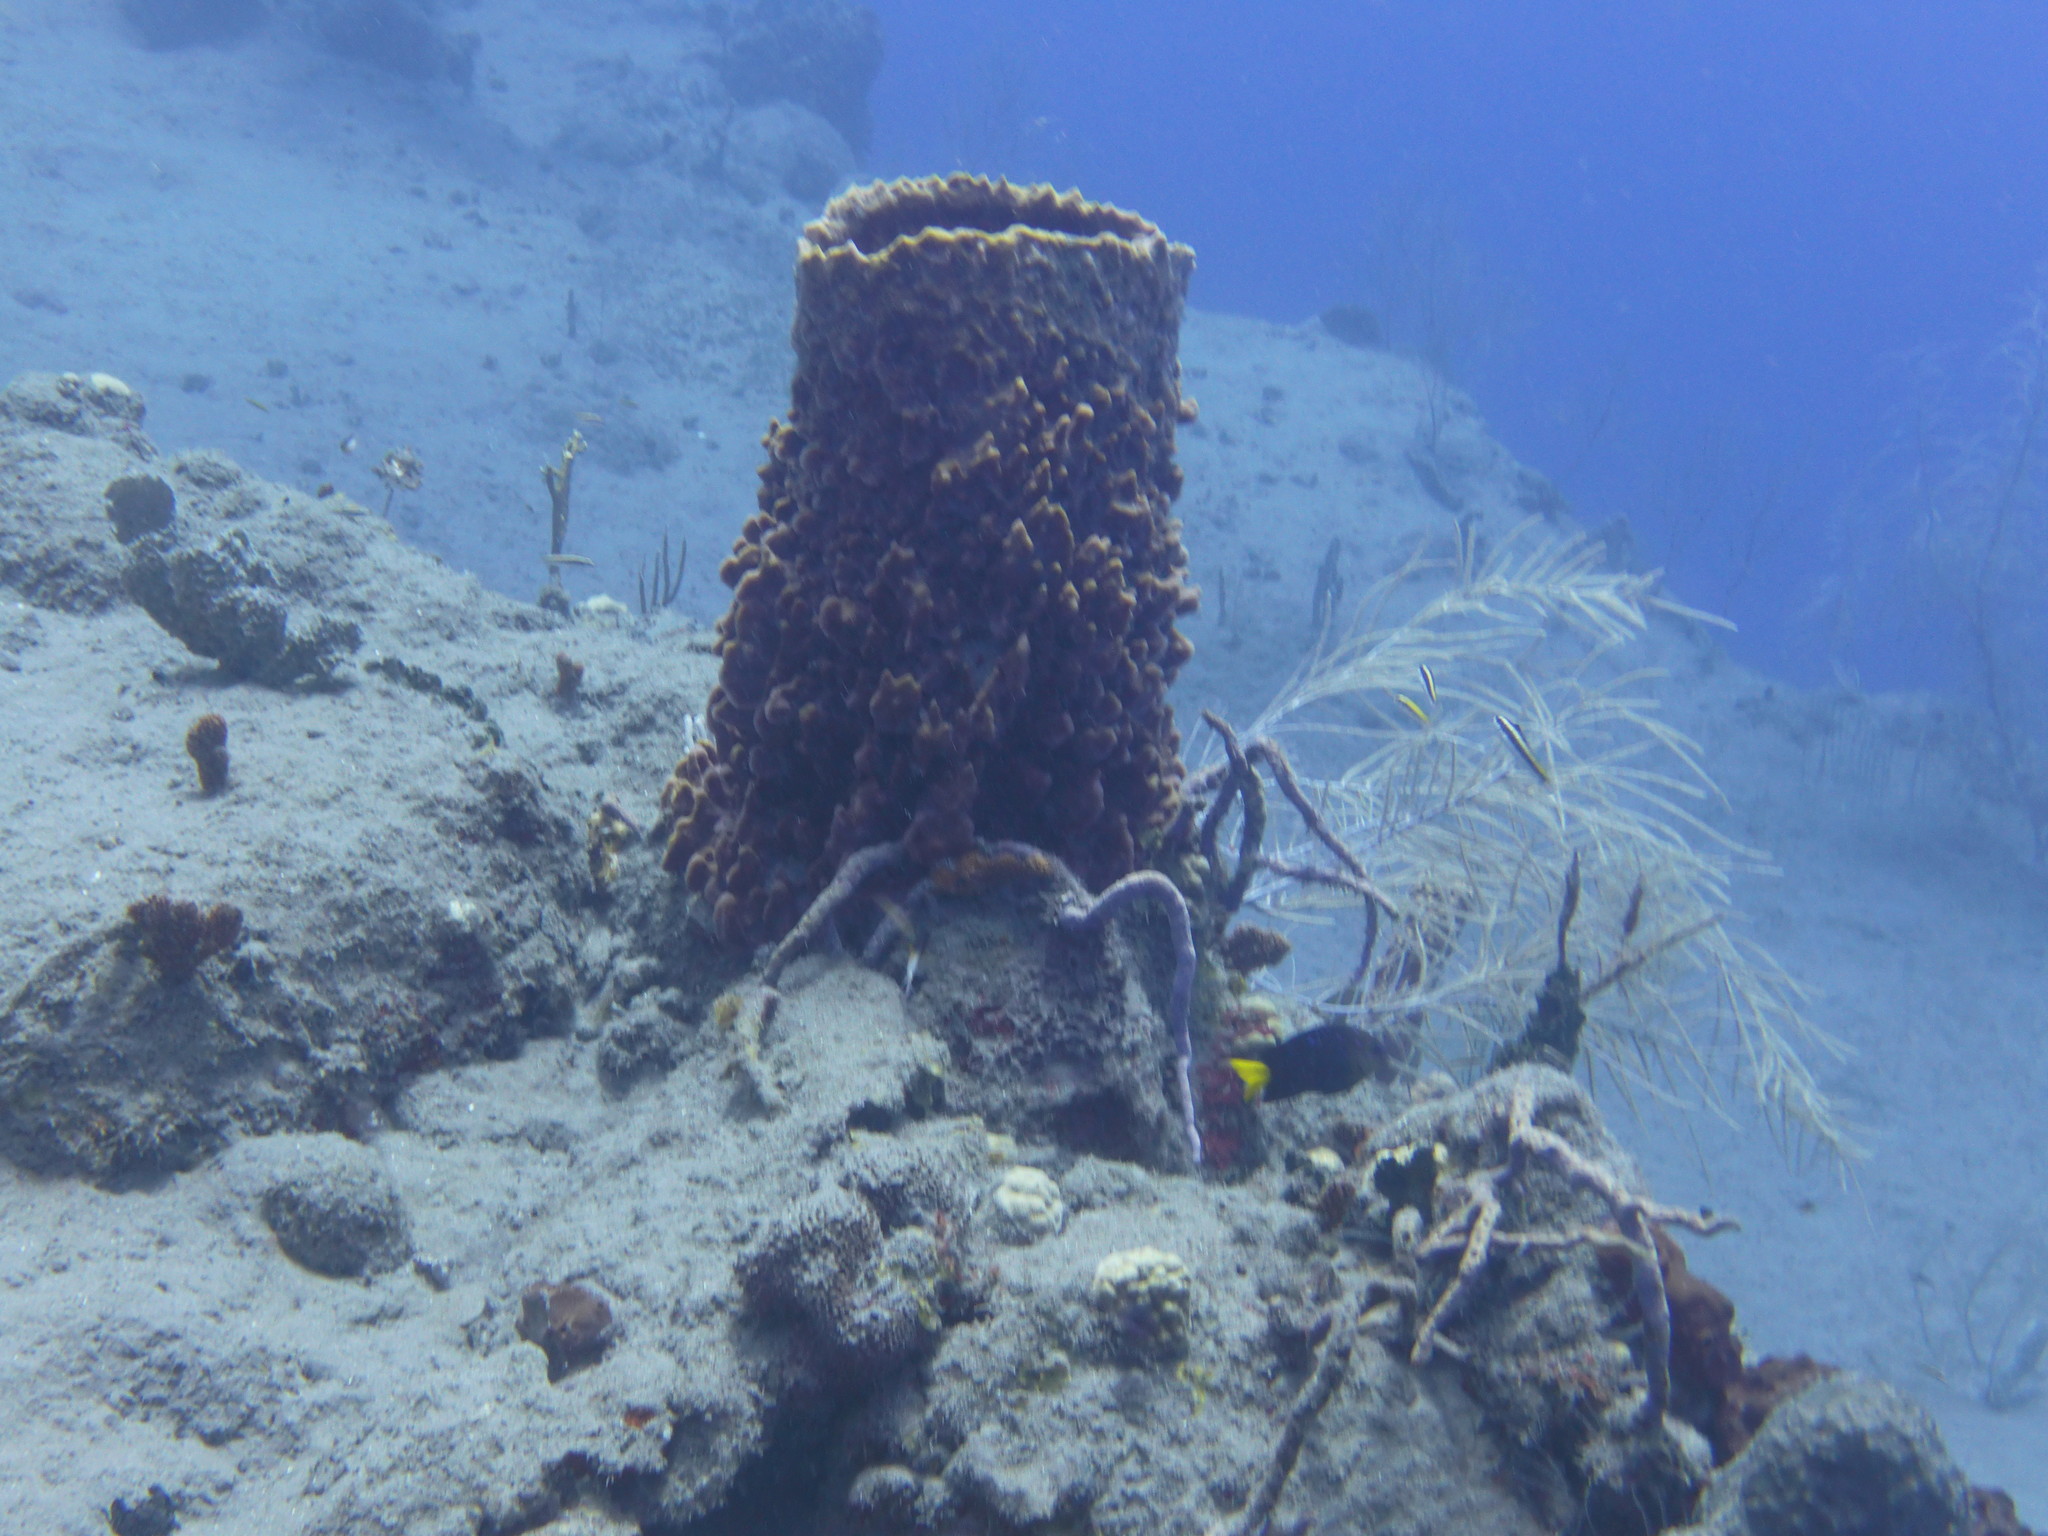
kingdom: Animalia
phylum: Porifera
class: Demospongiae
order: Haplosclerida
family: Petrosiidae
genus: Xestospongia
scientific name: Xestospongia muta
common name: Giant barrel sponge
